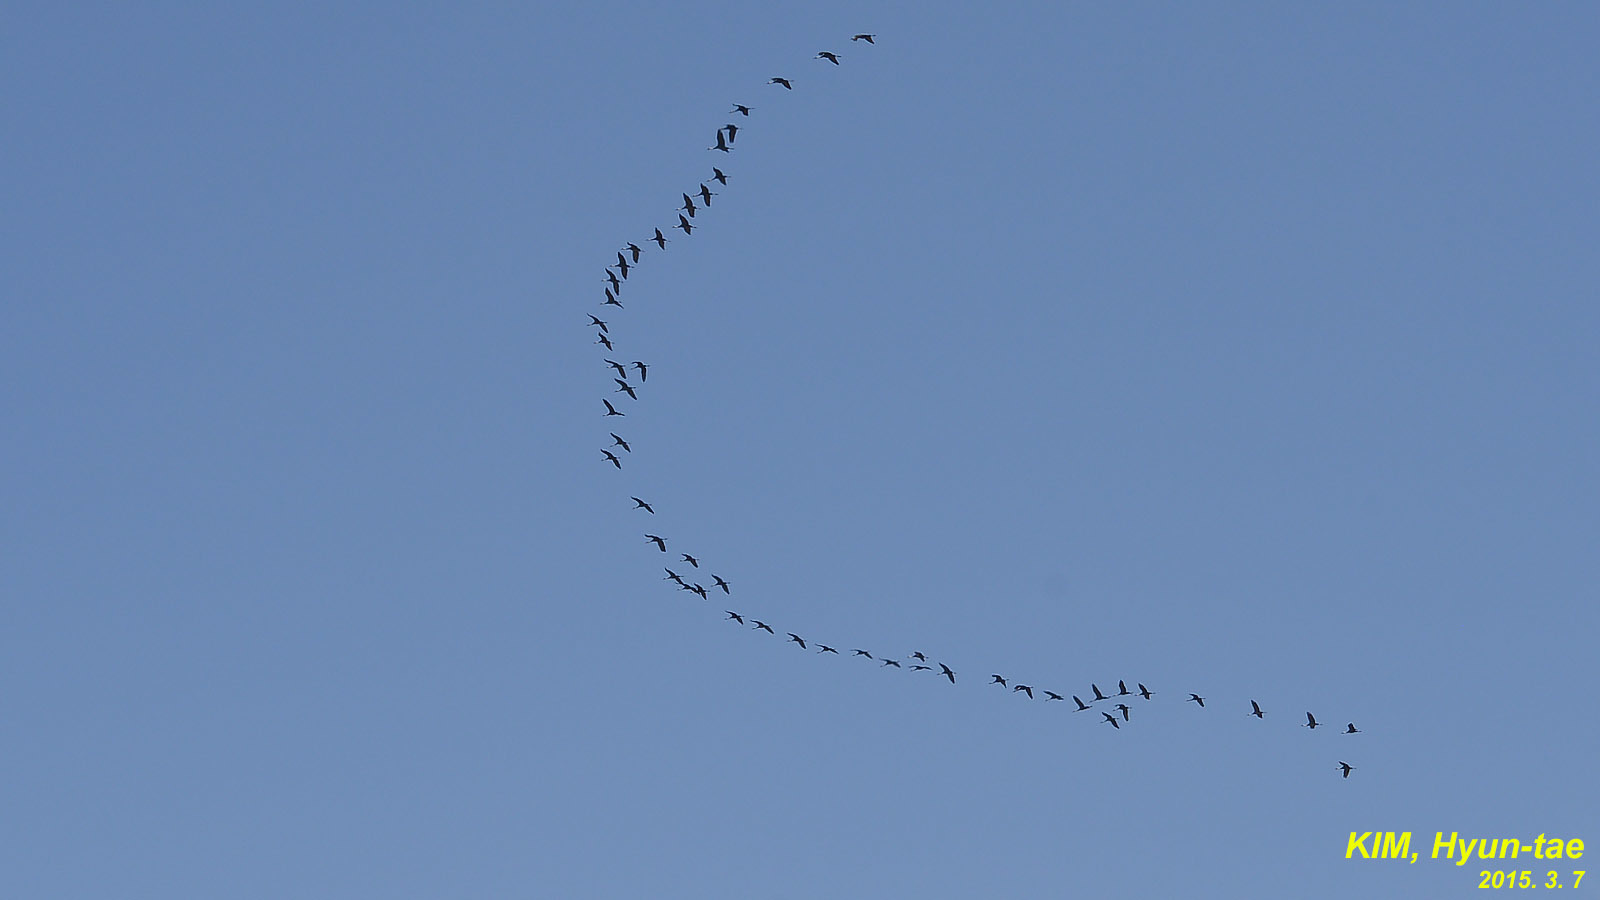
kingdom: Animalia
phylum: Chordata
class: Aves
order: Gruiformes
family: Gruidae
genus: Grus
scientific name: Grus monacha
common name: Hooded crane
